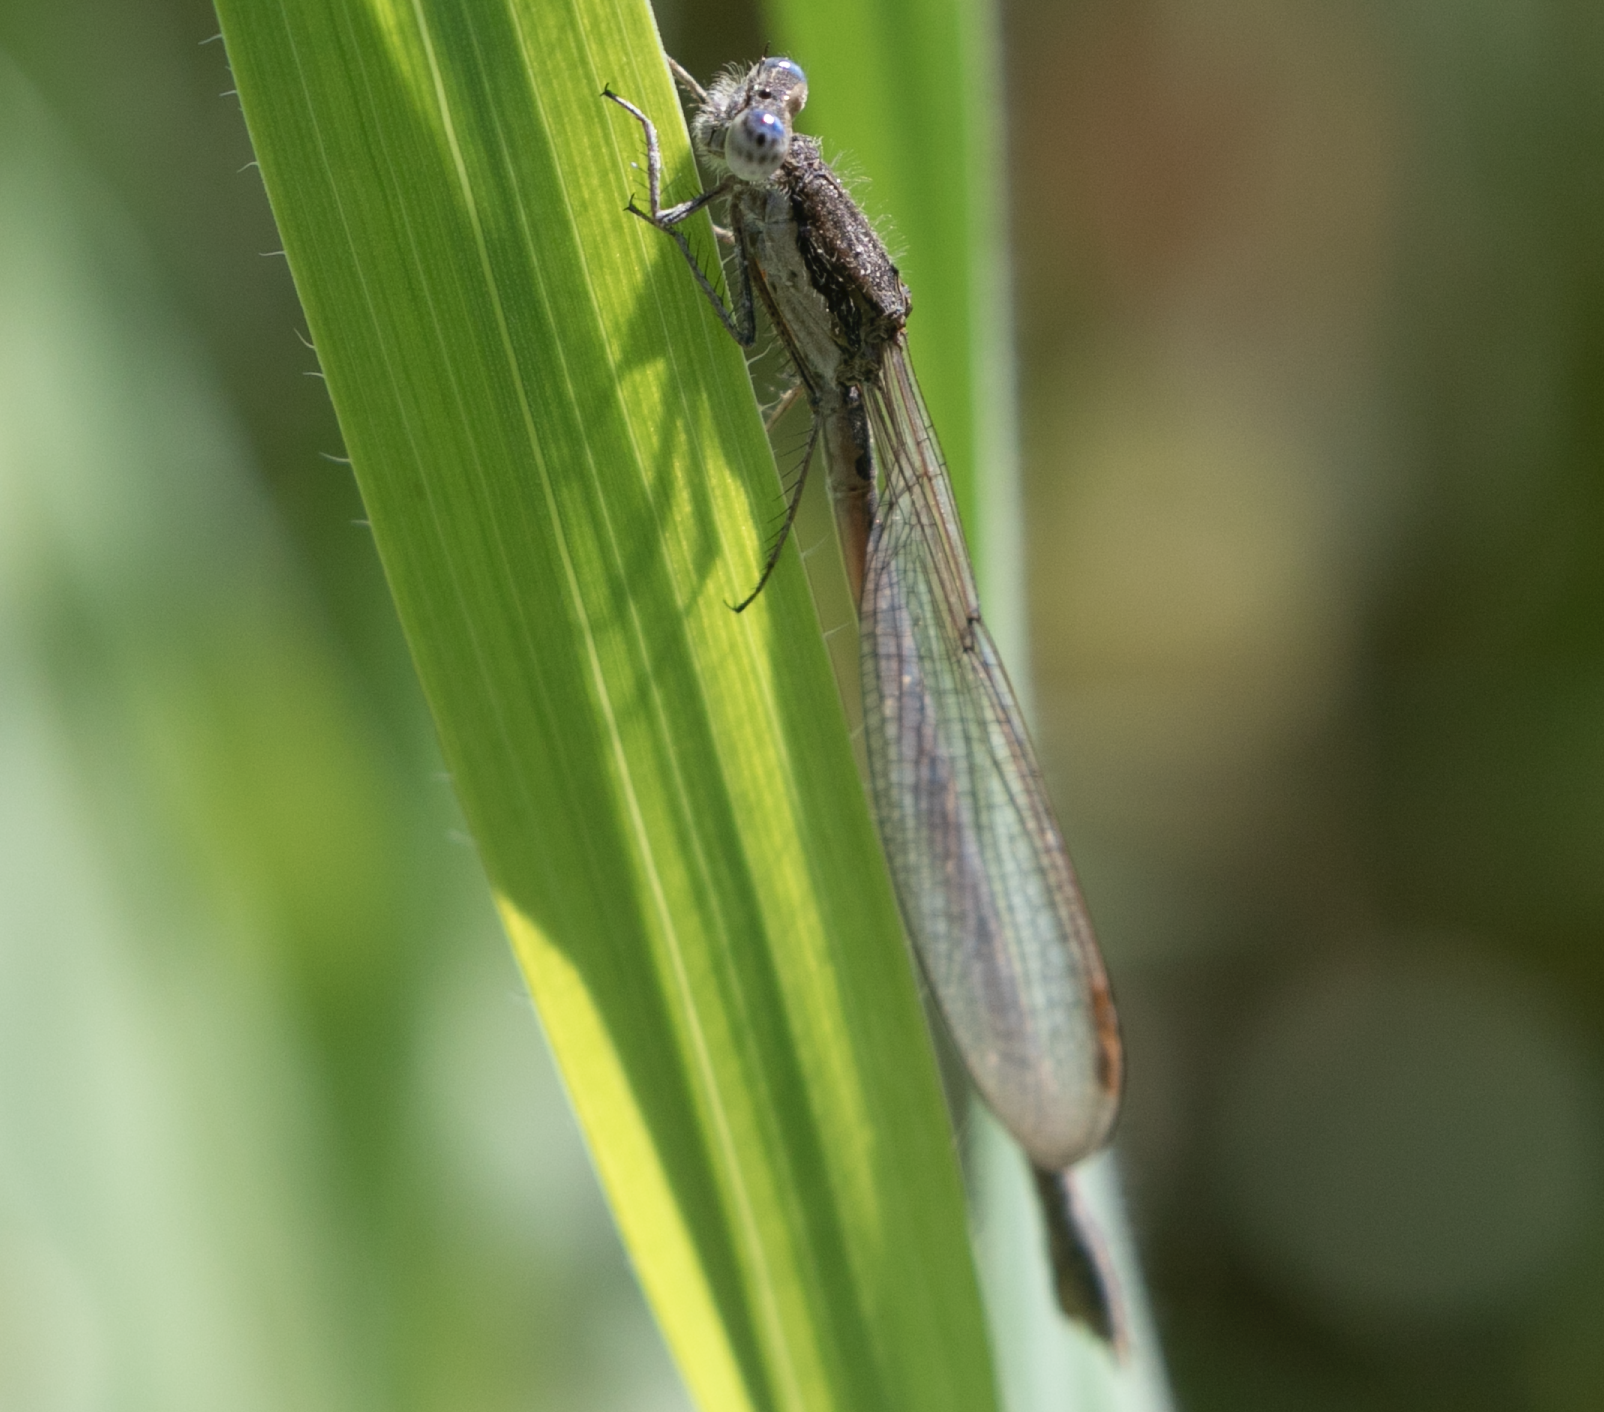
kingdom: Animalia
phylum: Arthropoda
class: Insecta
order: Odonata
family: Lestidae
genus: Sympecma
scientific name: Sympecma fusca
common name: Common winter damsel
